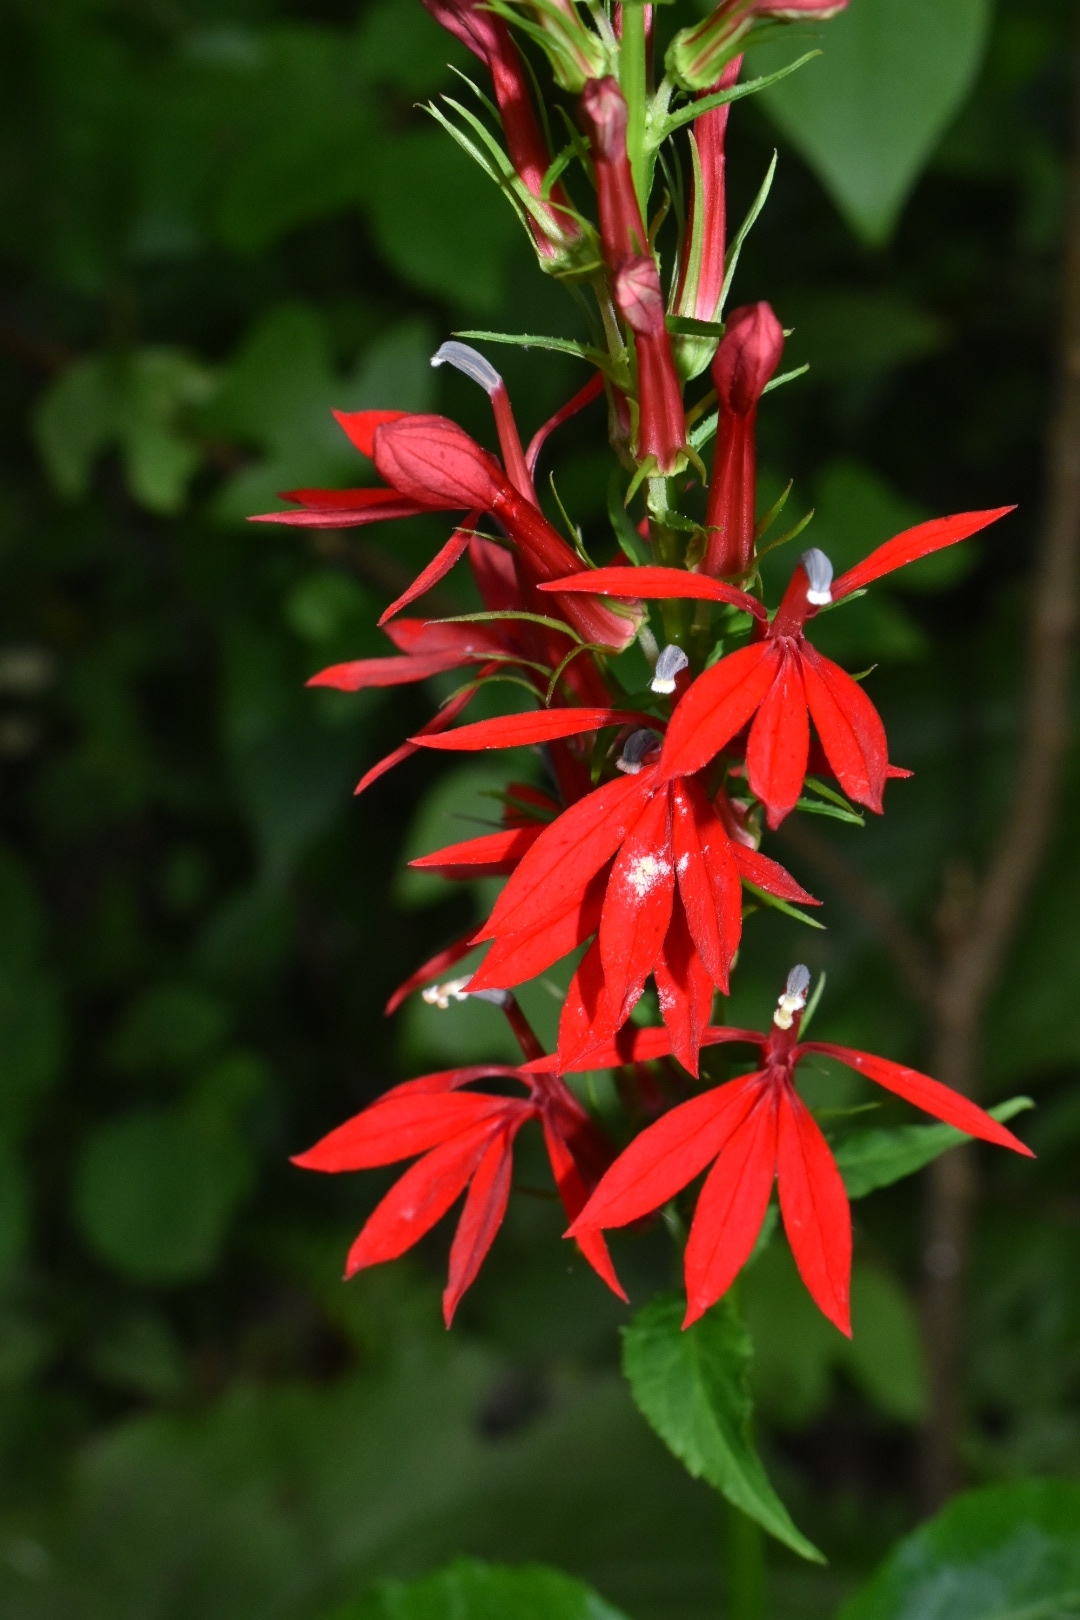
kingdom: Plantae
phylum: Tracheophyta
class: Magnoliopsida
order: Asterales
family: Campanulaceae
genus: Lobelia
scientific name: Lobelia cardinalis
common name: Cardinal flower
